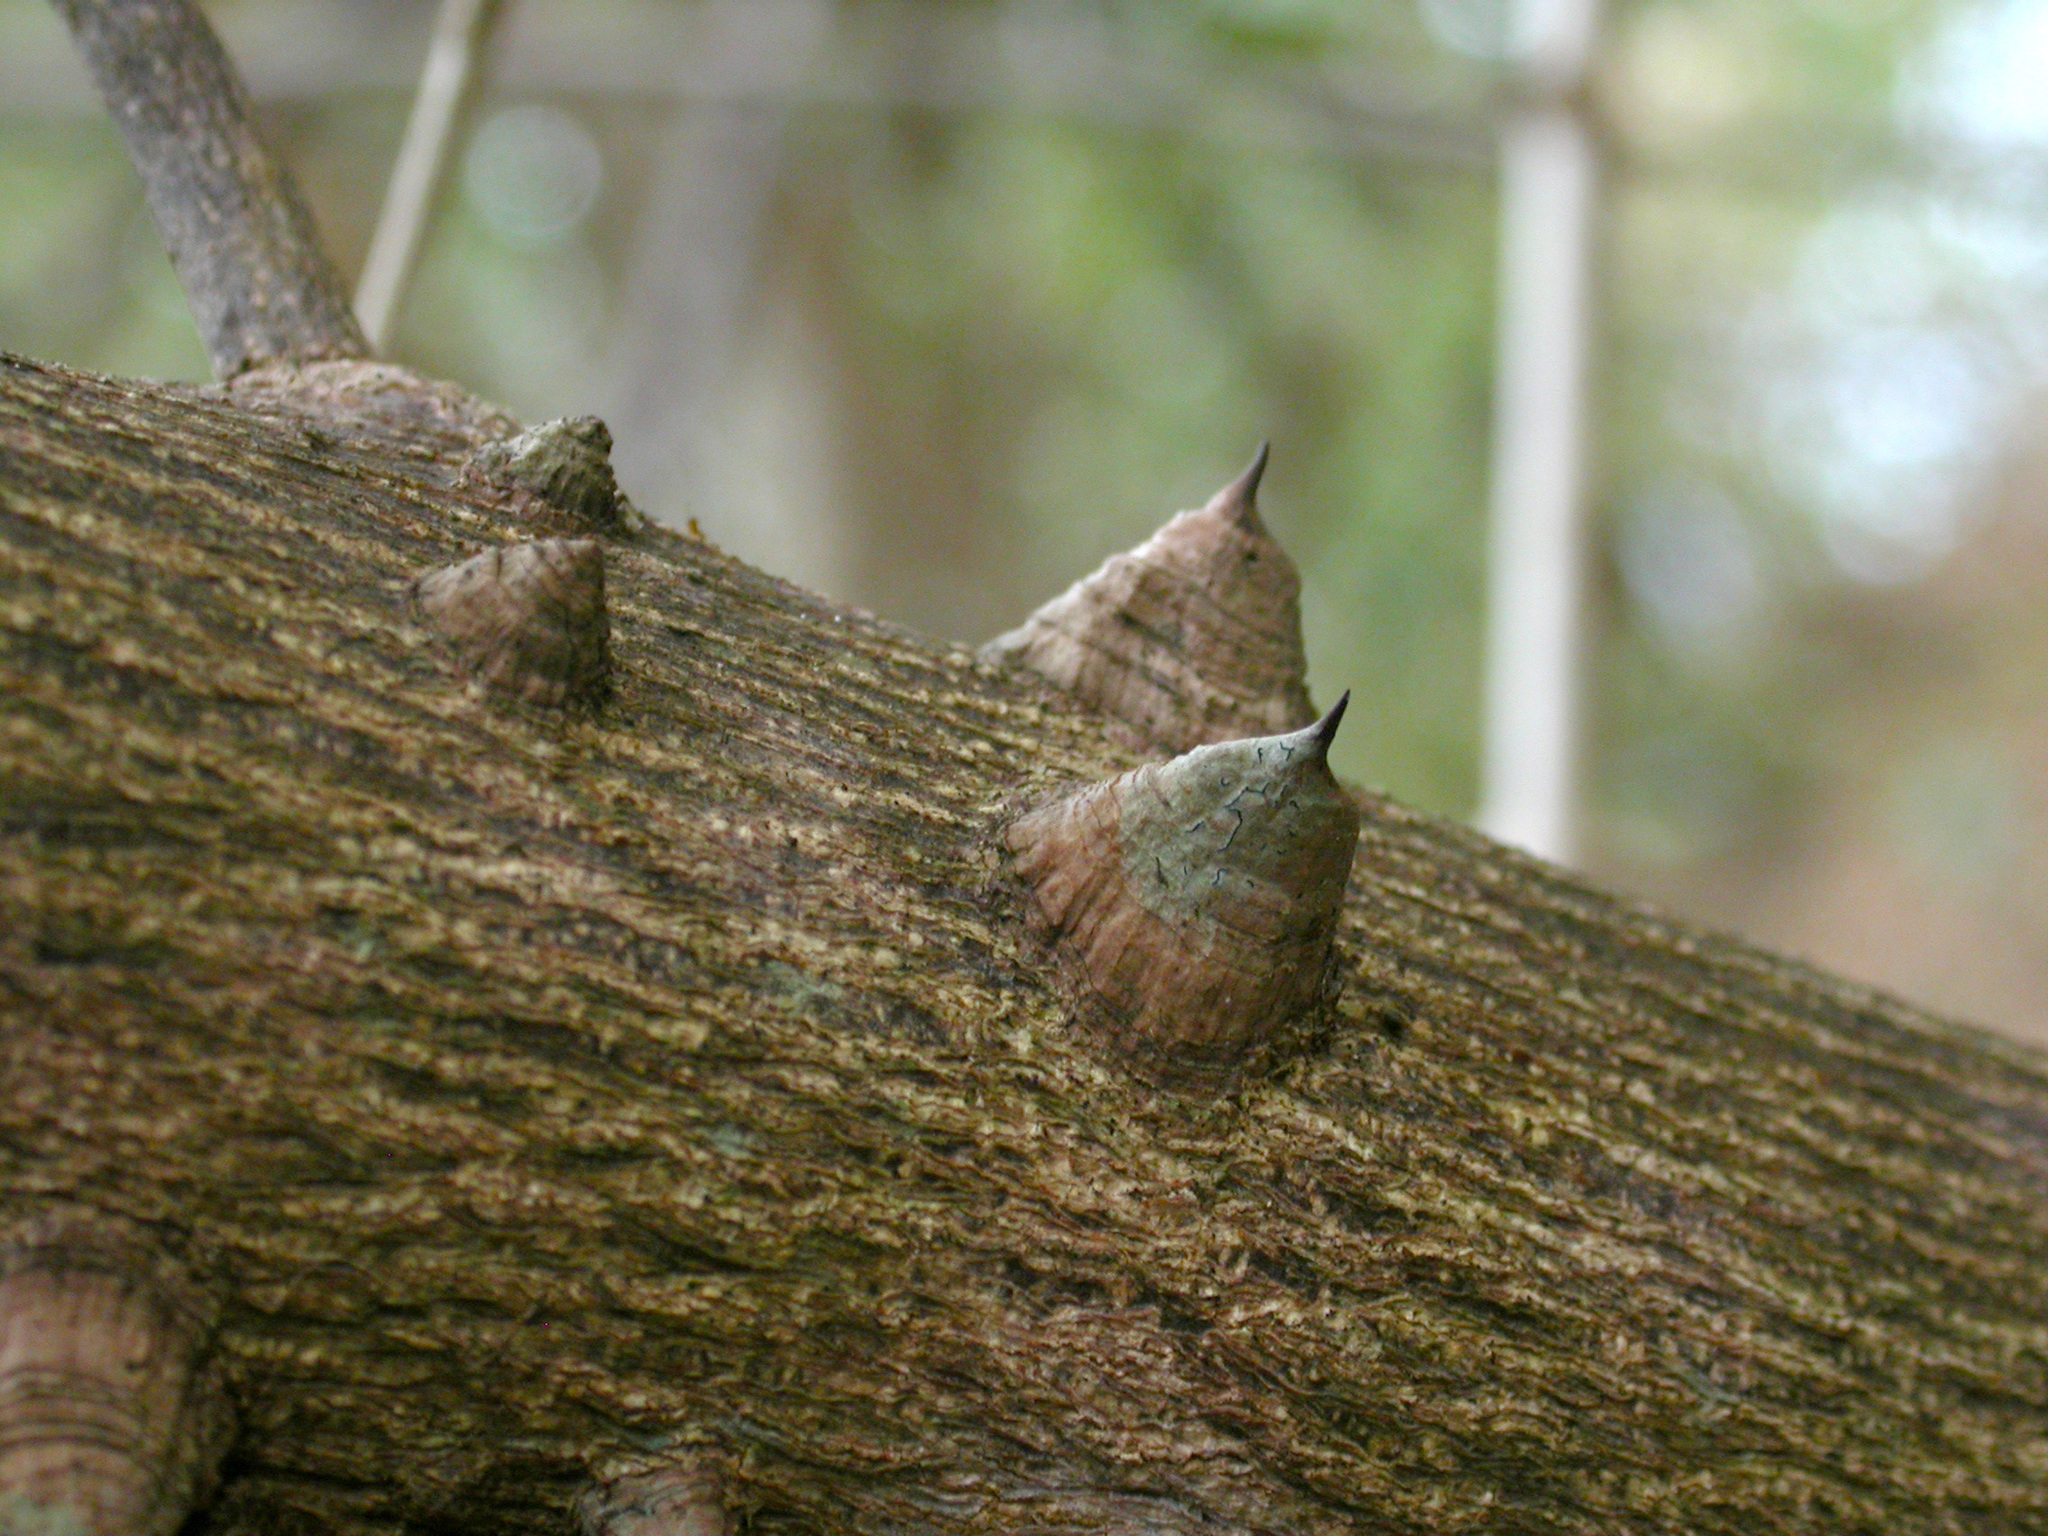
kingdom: Plantae
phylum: Tracheophyta
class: Magnoliopsida
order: Malvales
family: Malvaceae
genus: Ceiba
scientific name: Ceiba pentandra
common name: Kapok
